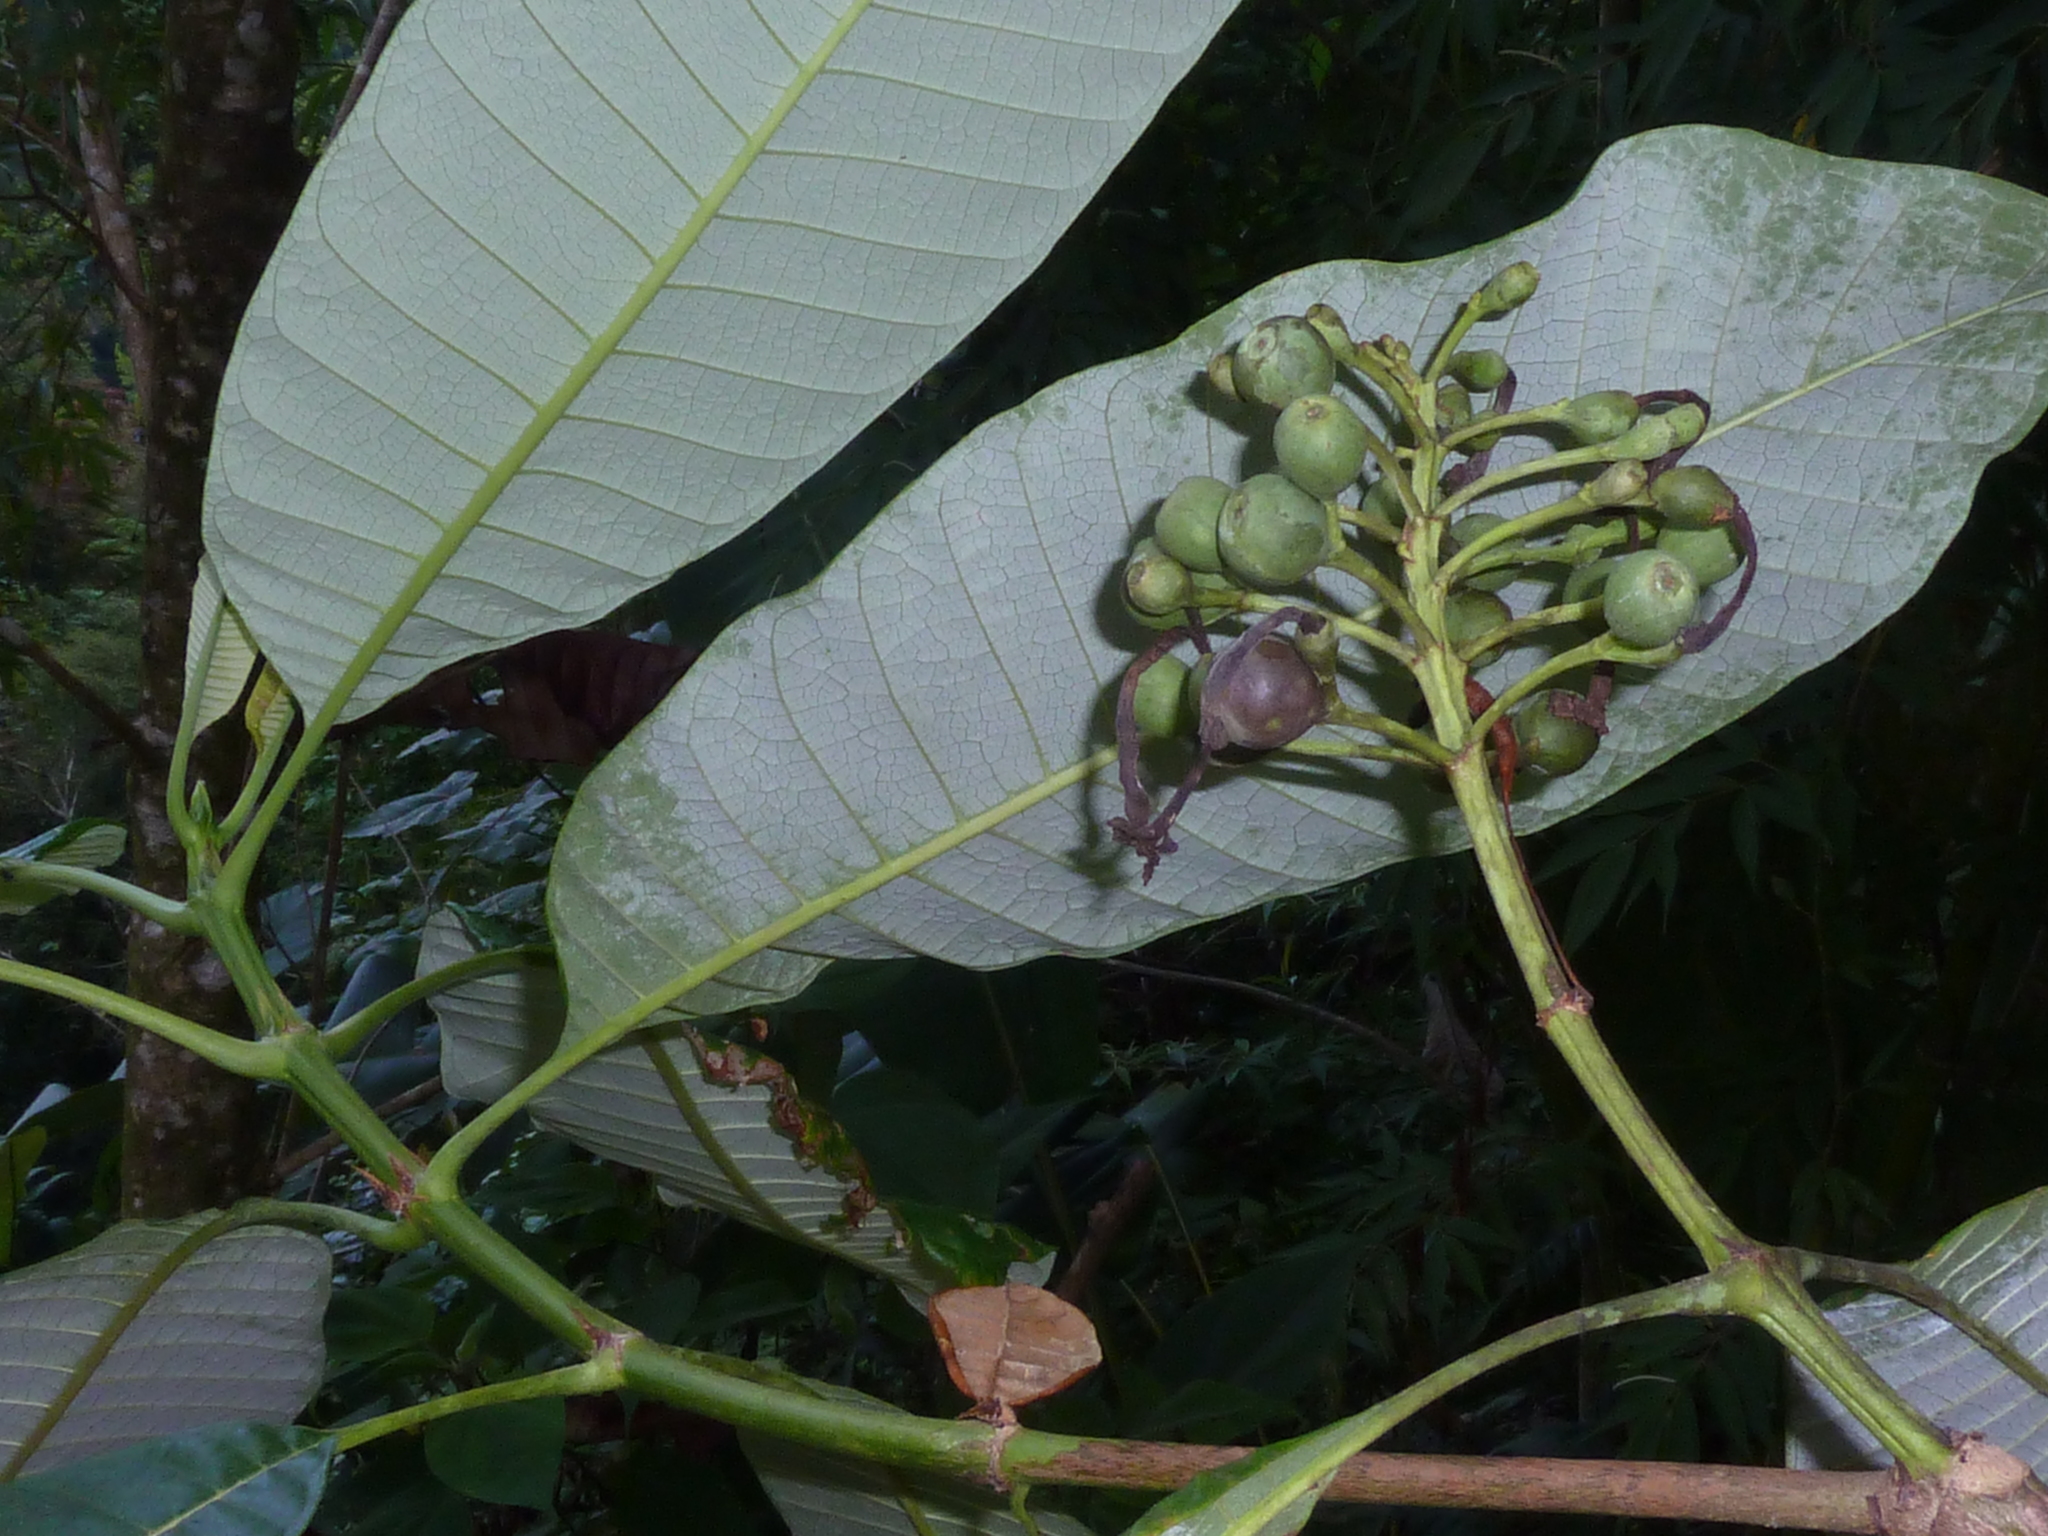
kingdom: Plantae
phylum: Tracheophyta
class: Magnoliopsida
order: Gentianales
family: Rubiaceae
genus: Isertia
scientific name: Isertia laevis
